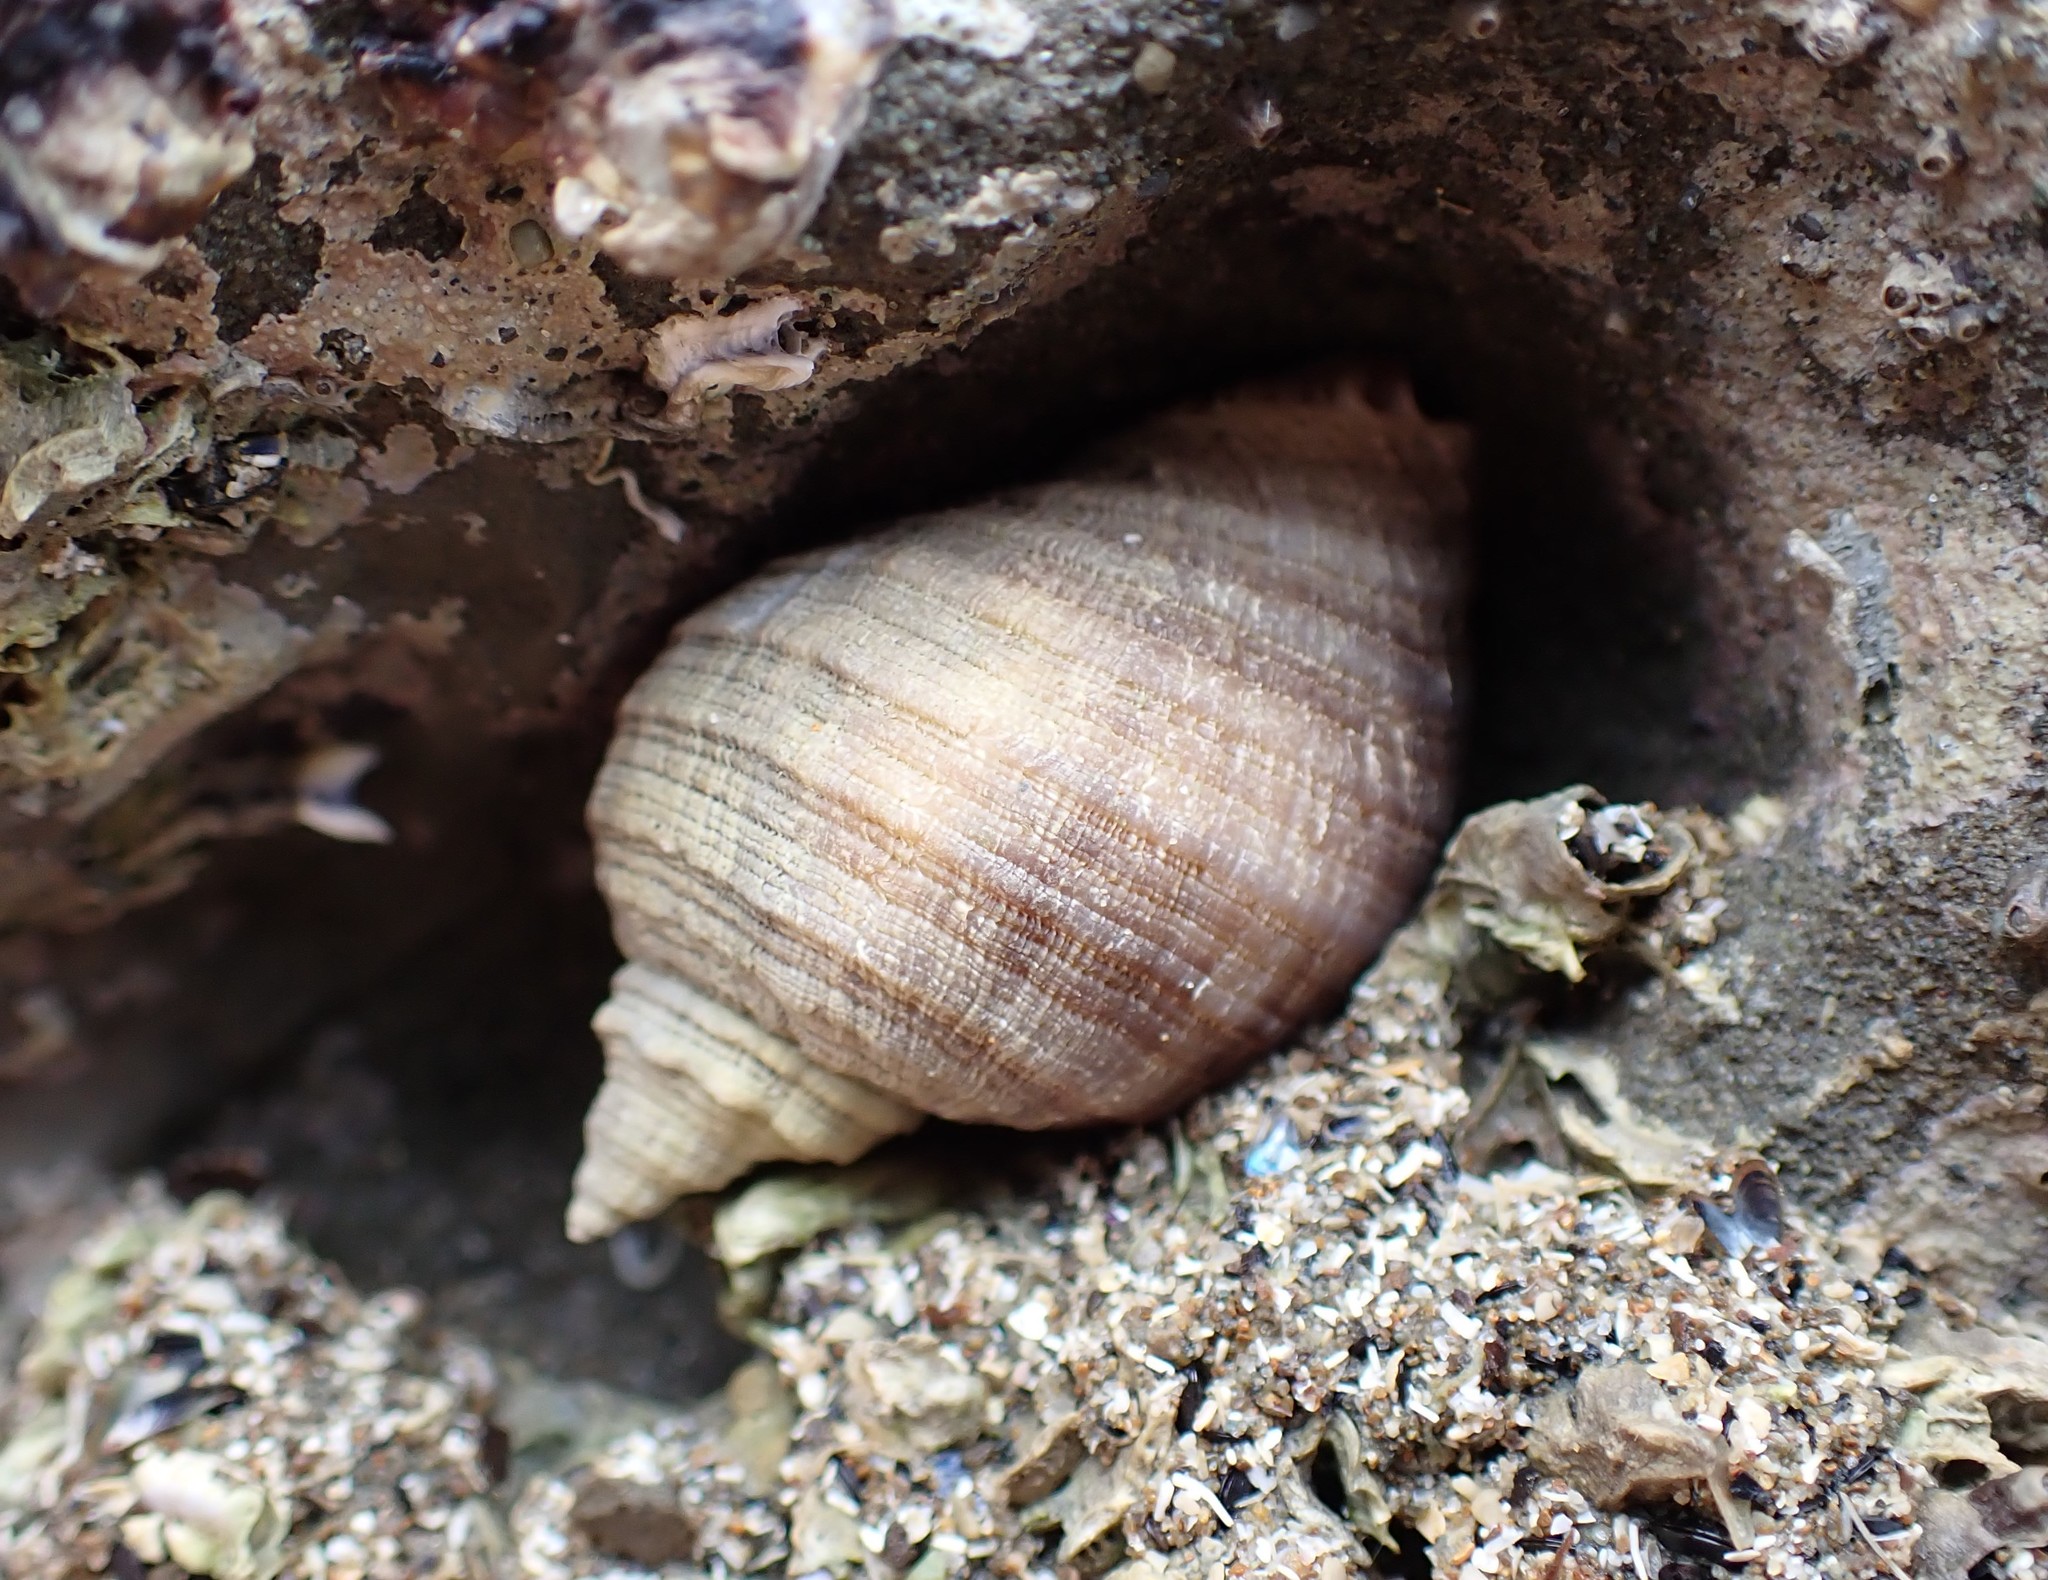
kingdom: Animalia
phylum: Mollusca
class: Gastropoda
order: Neogastropoda
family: Muricidae
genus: Dicathais
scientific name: Dicathais orbita
